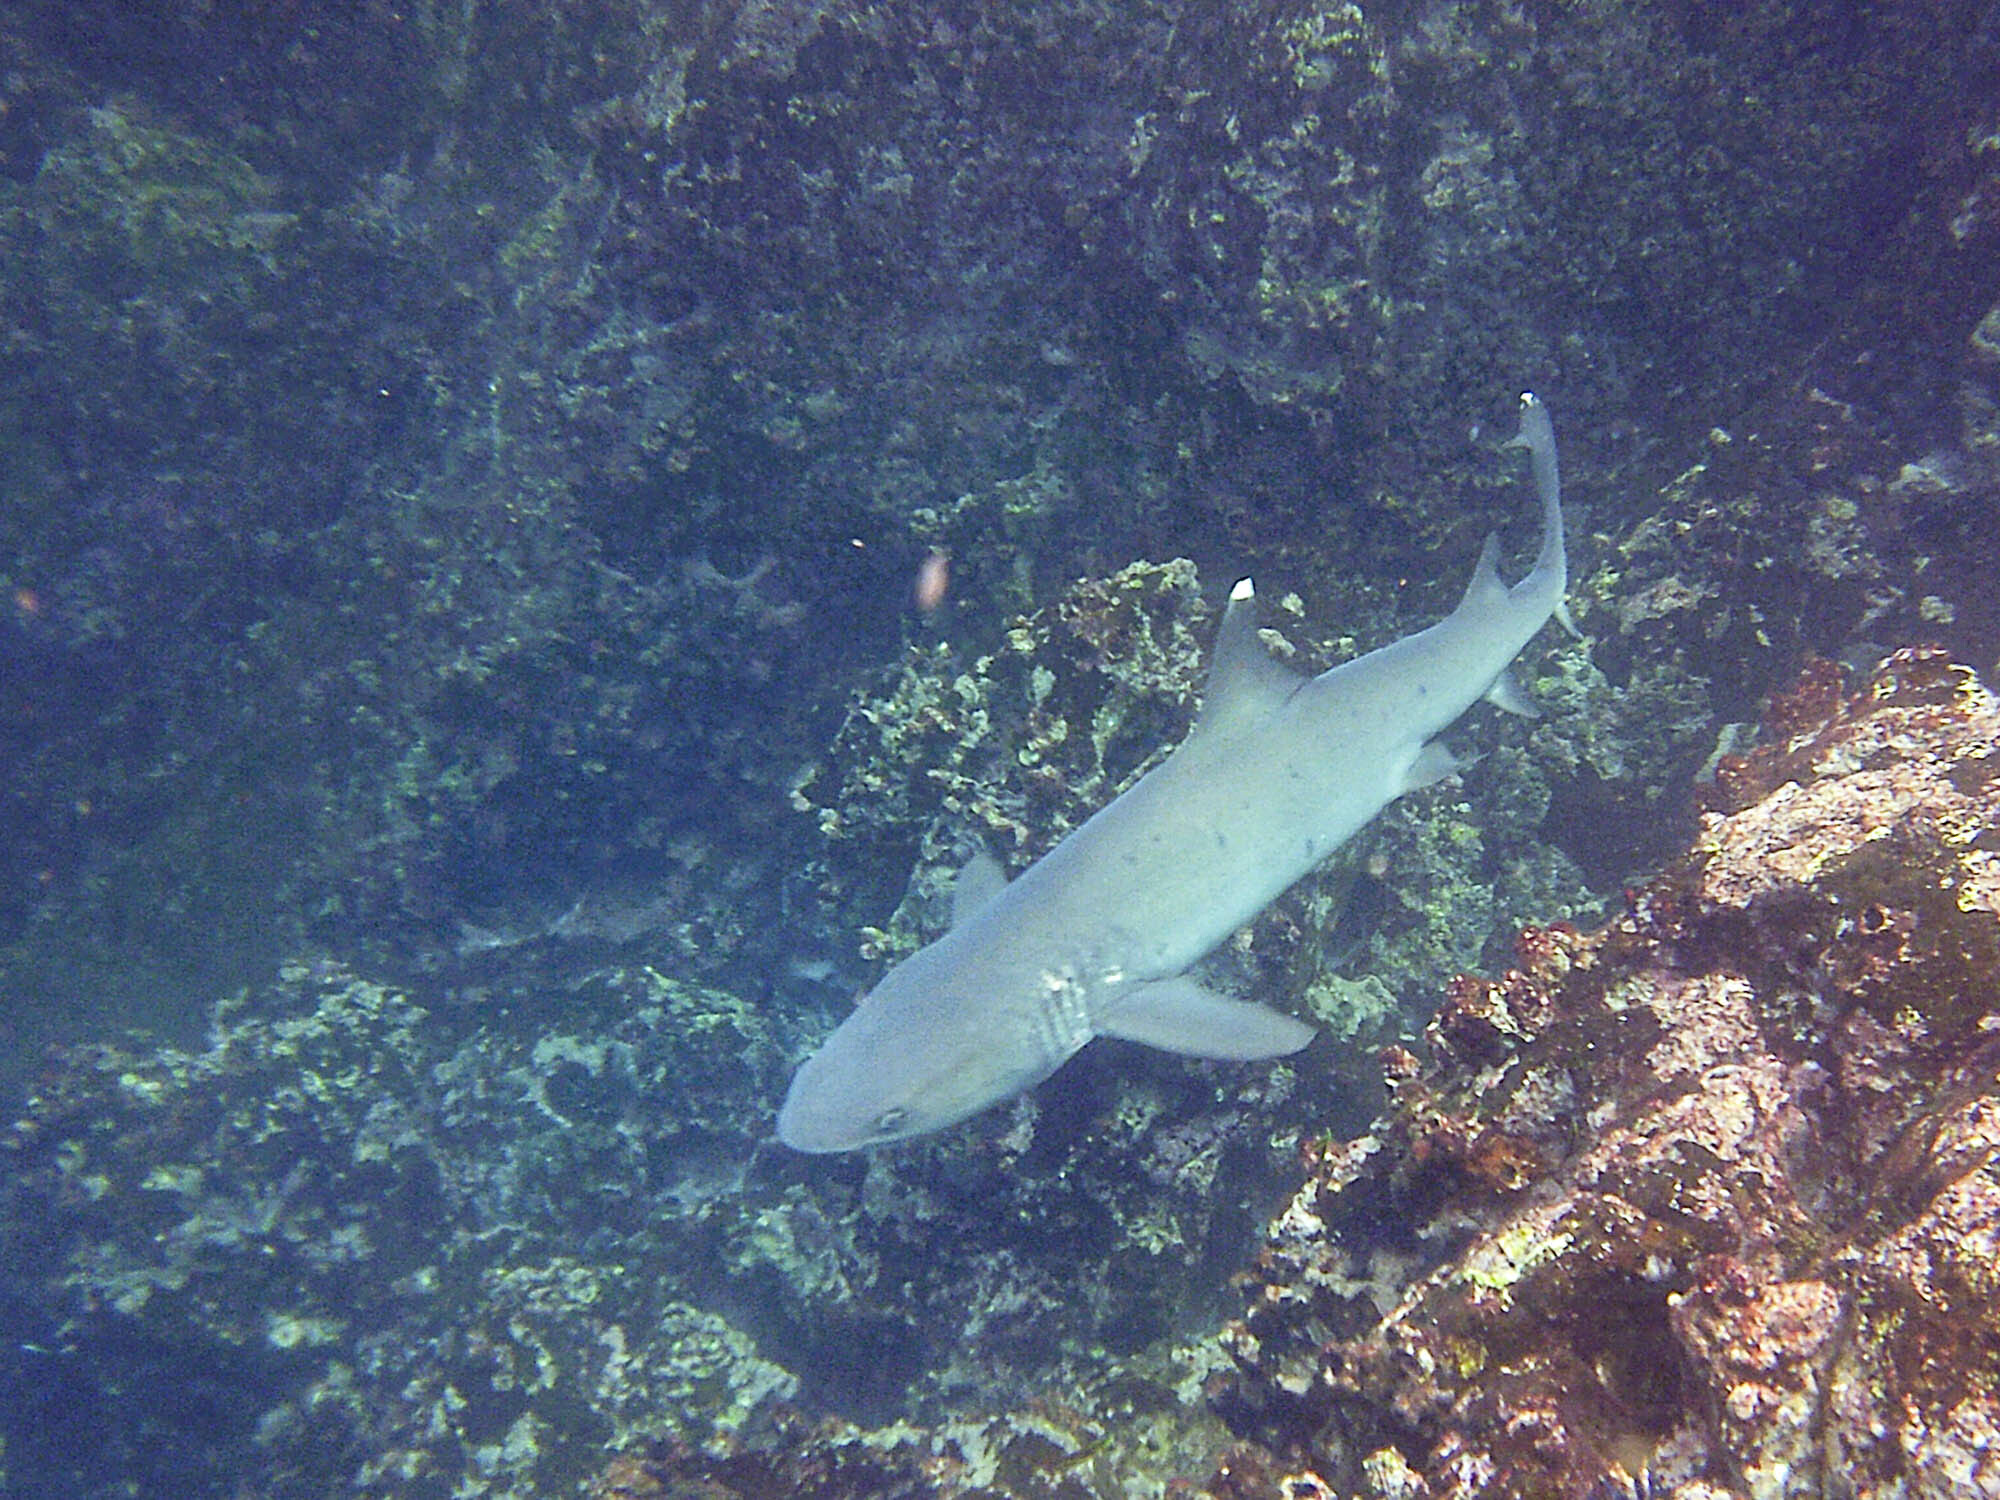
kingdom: Animalia
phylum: Chordata
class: Elasmobranchii
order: Carcharhiniformes
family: Carcharhinidae
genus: Triaenodon
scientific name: Triaenodon obesus
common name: Whitetip reef shark
